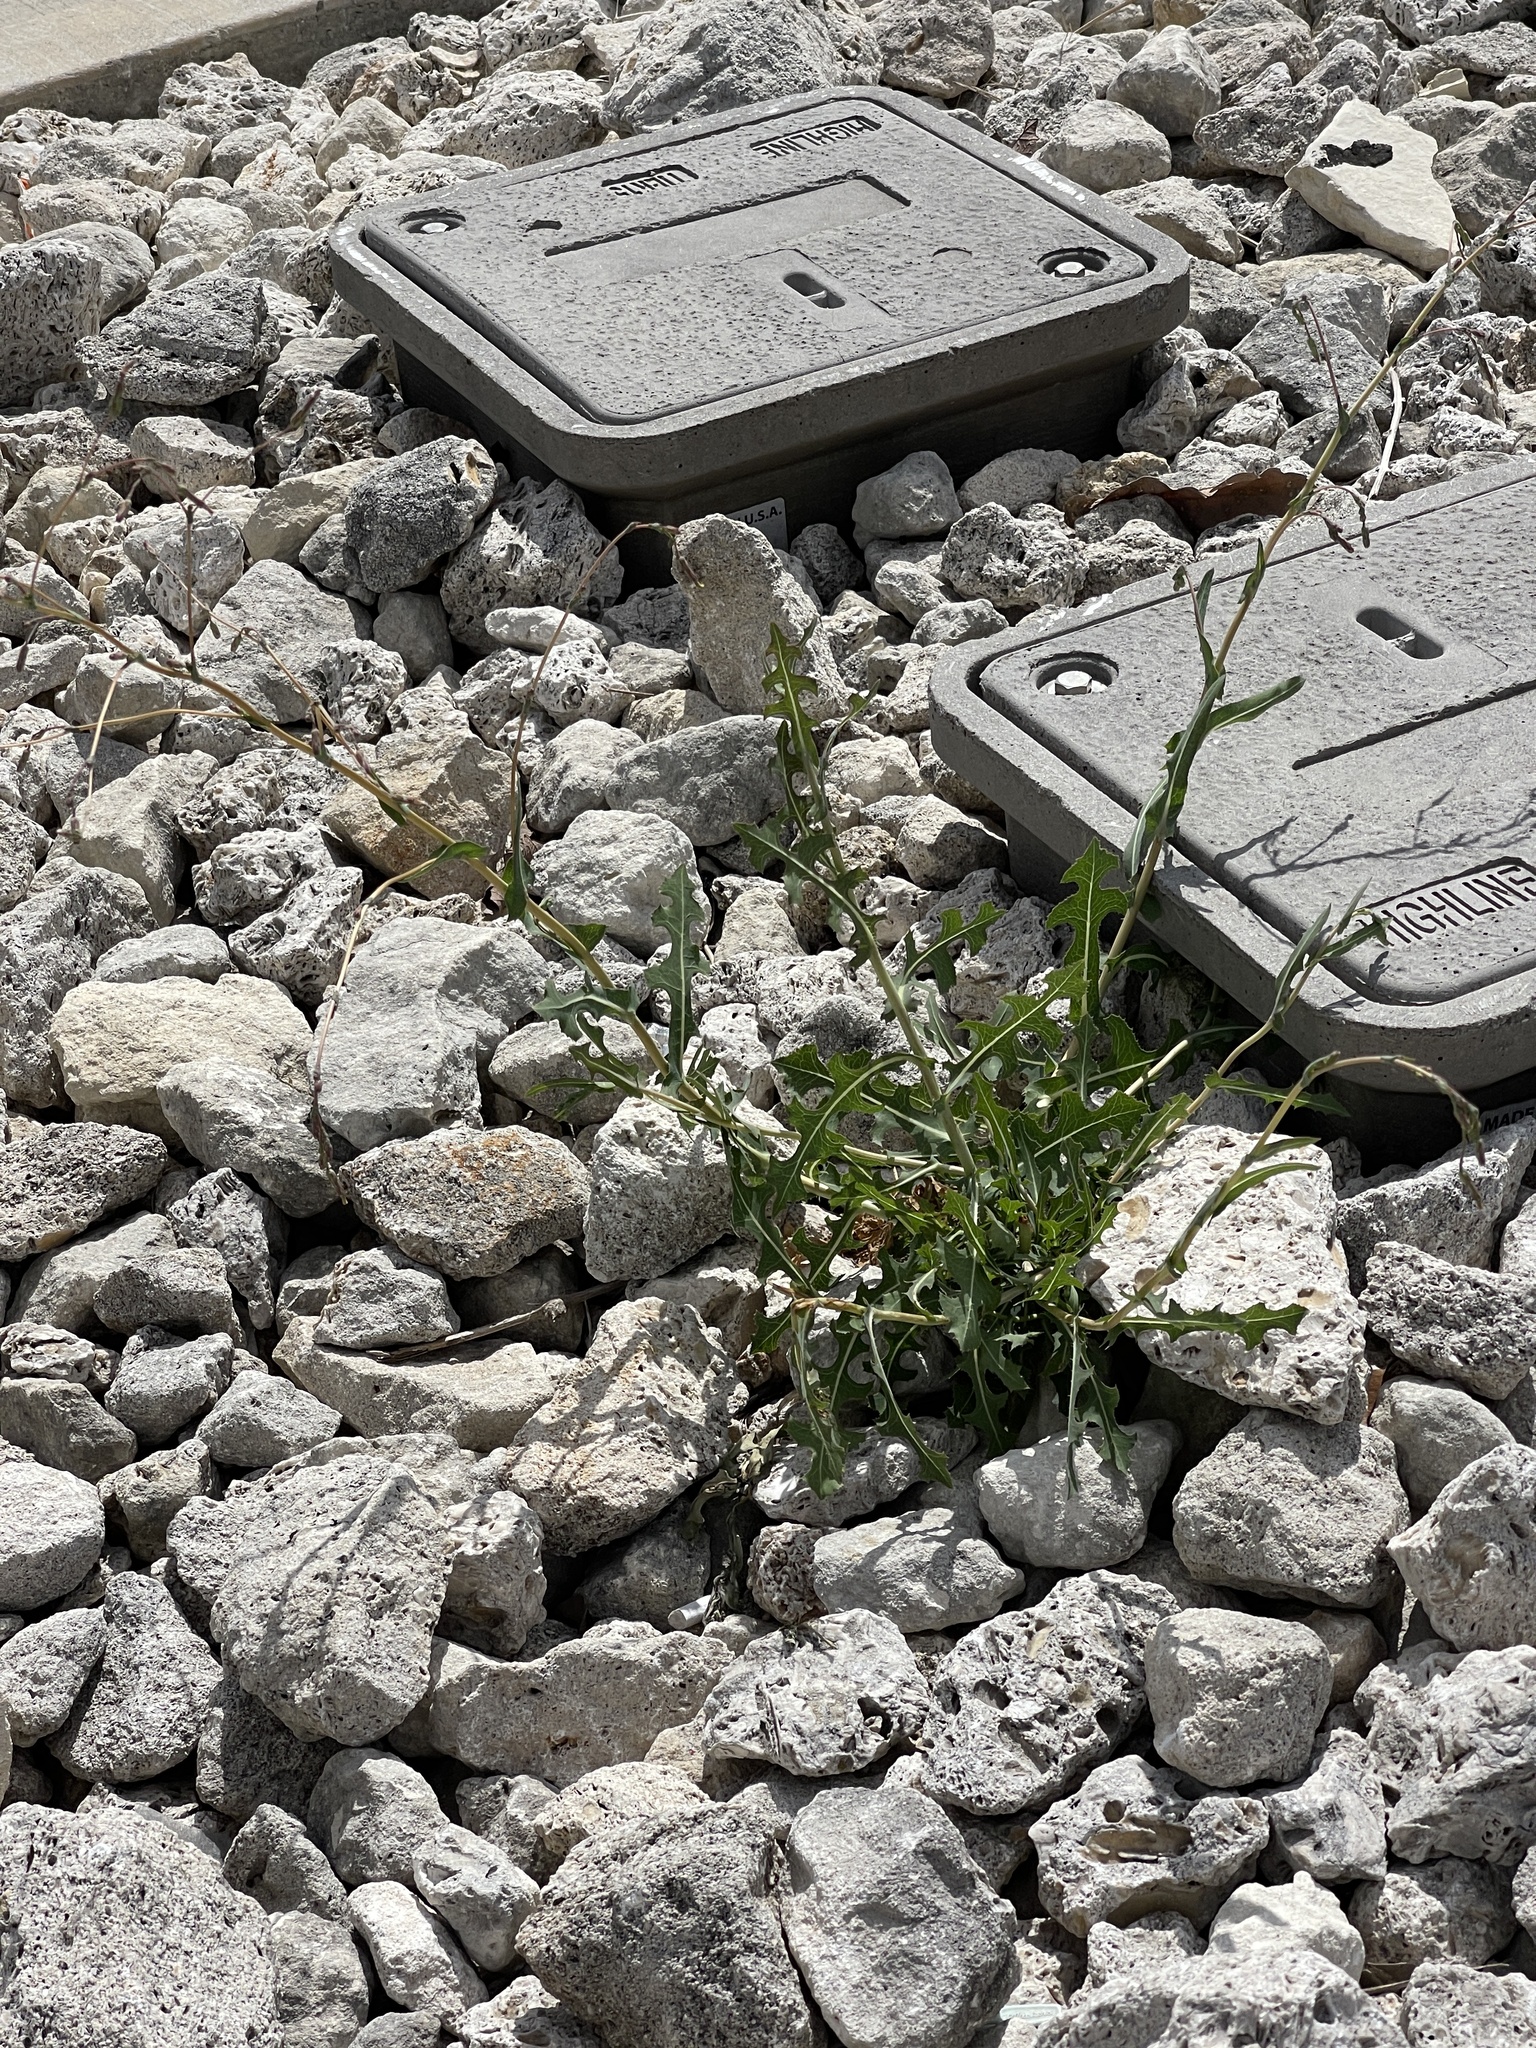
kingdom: Plantae
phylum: Tracheophyta
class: Magnoliopsida
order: Asterales
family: Asteraceae
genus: Lactuca
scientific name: Lactuca serriola
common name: Prickly lettuce
